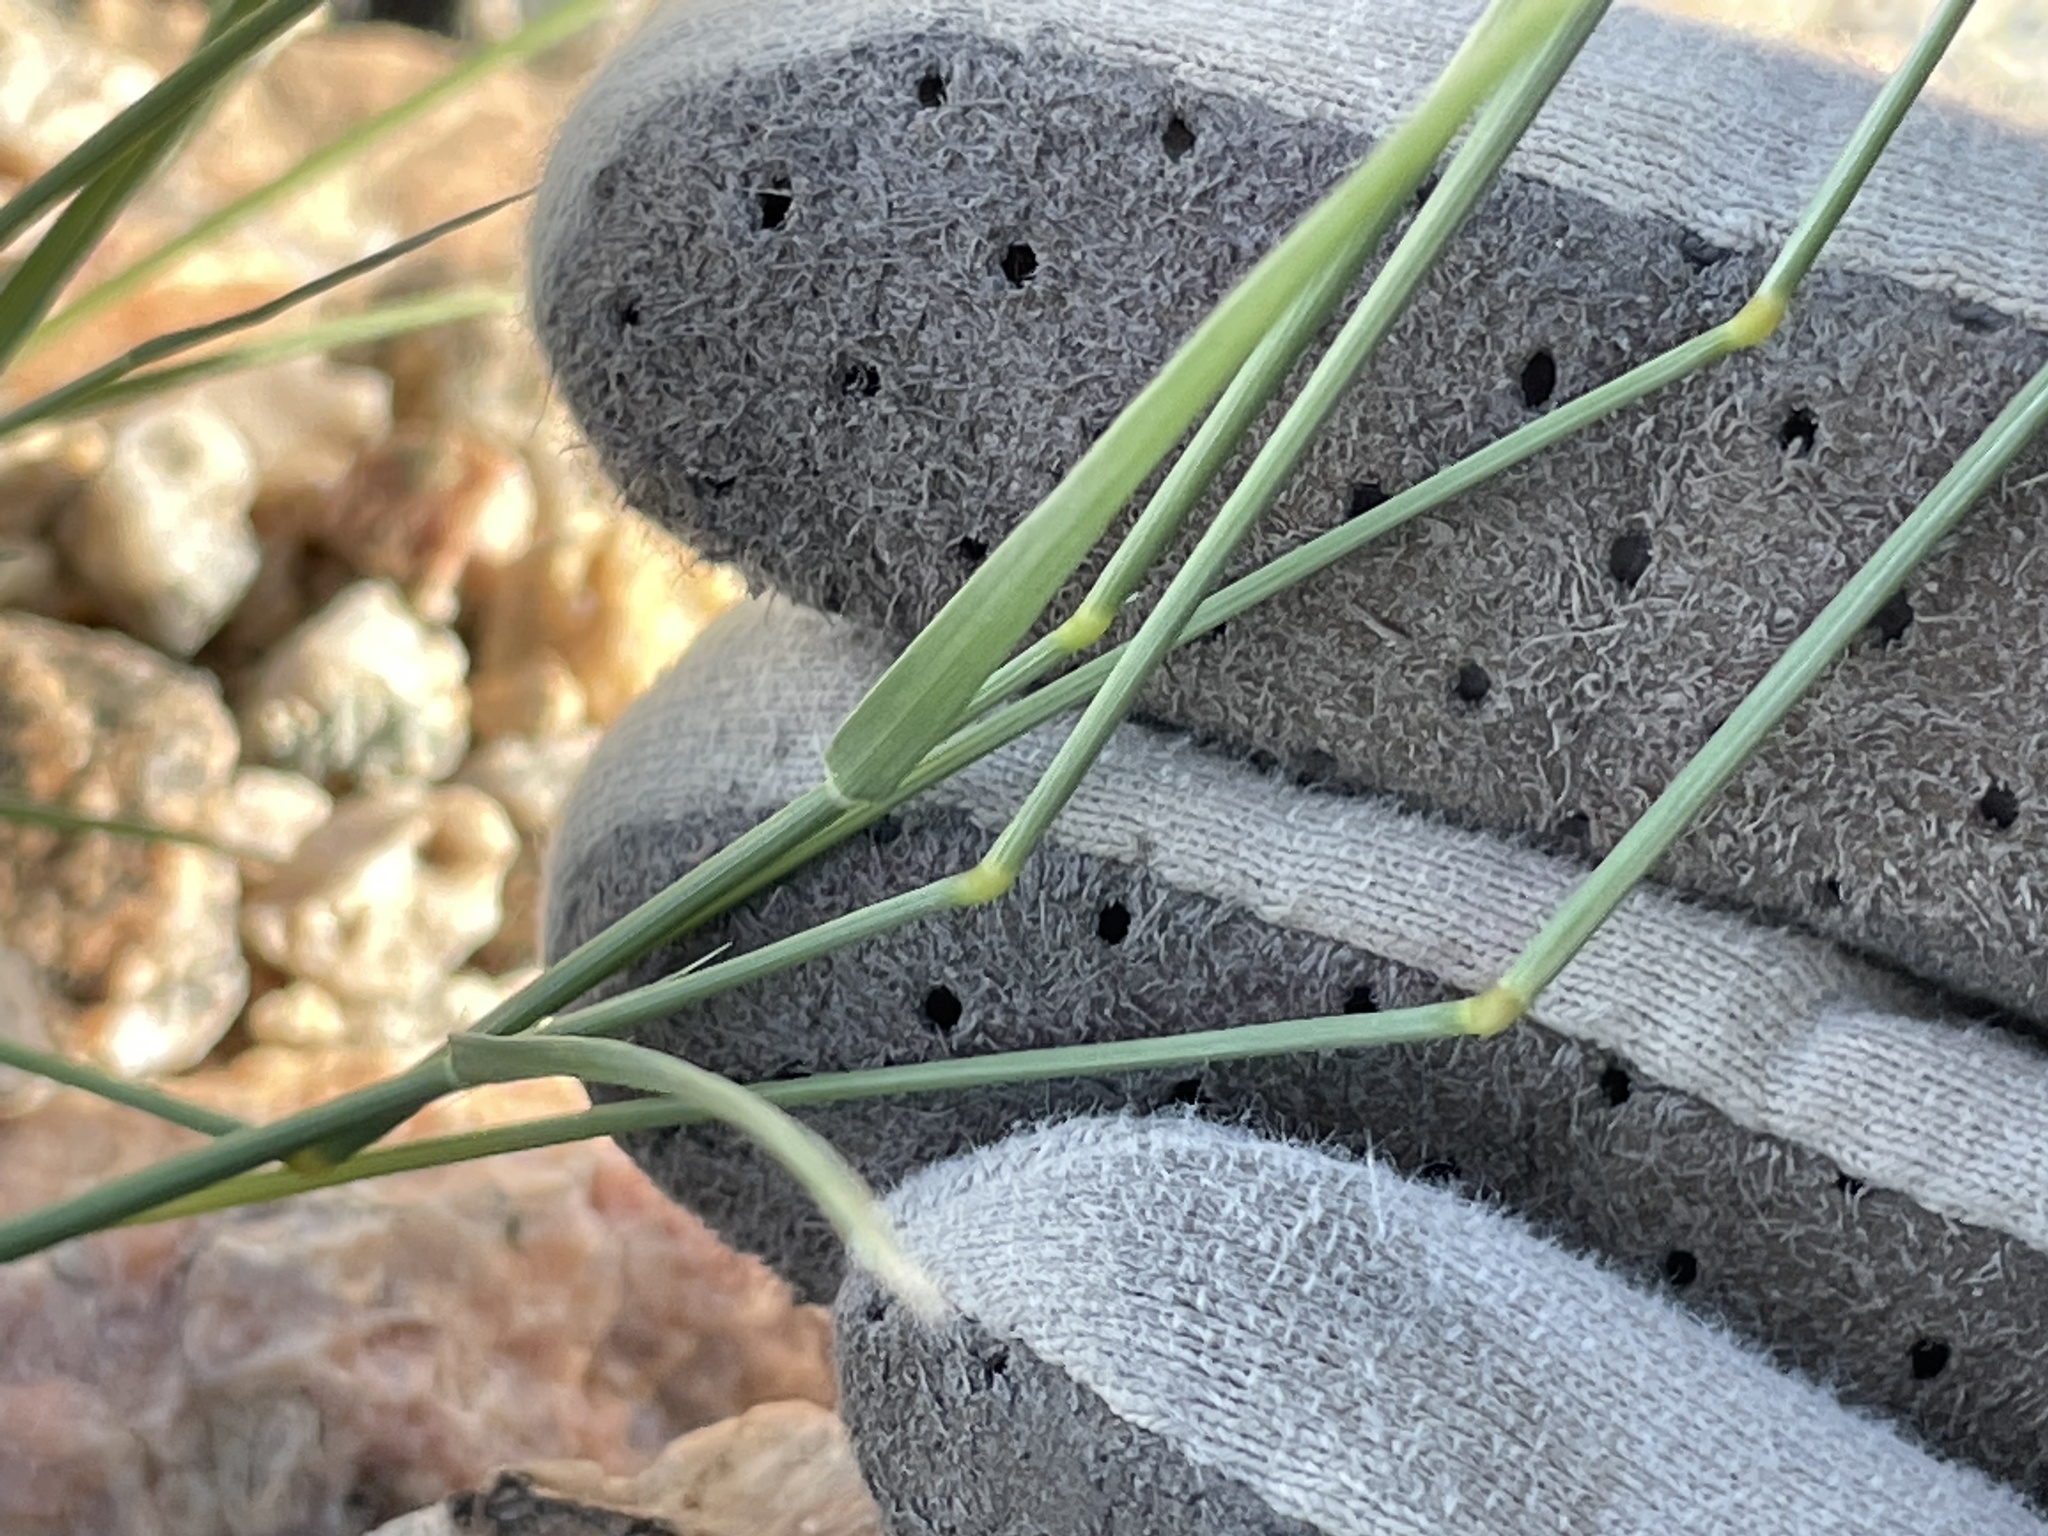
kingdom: Plantae
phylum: Tracheophyta
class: Liliopsida
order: Poales
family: Poaceae
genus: Bouteloua
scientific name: Bouteloua barbata
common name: Six-weeks grama
